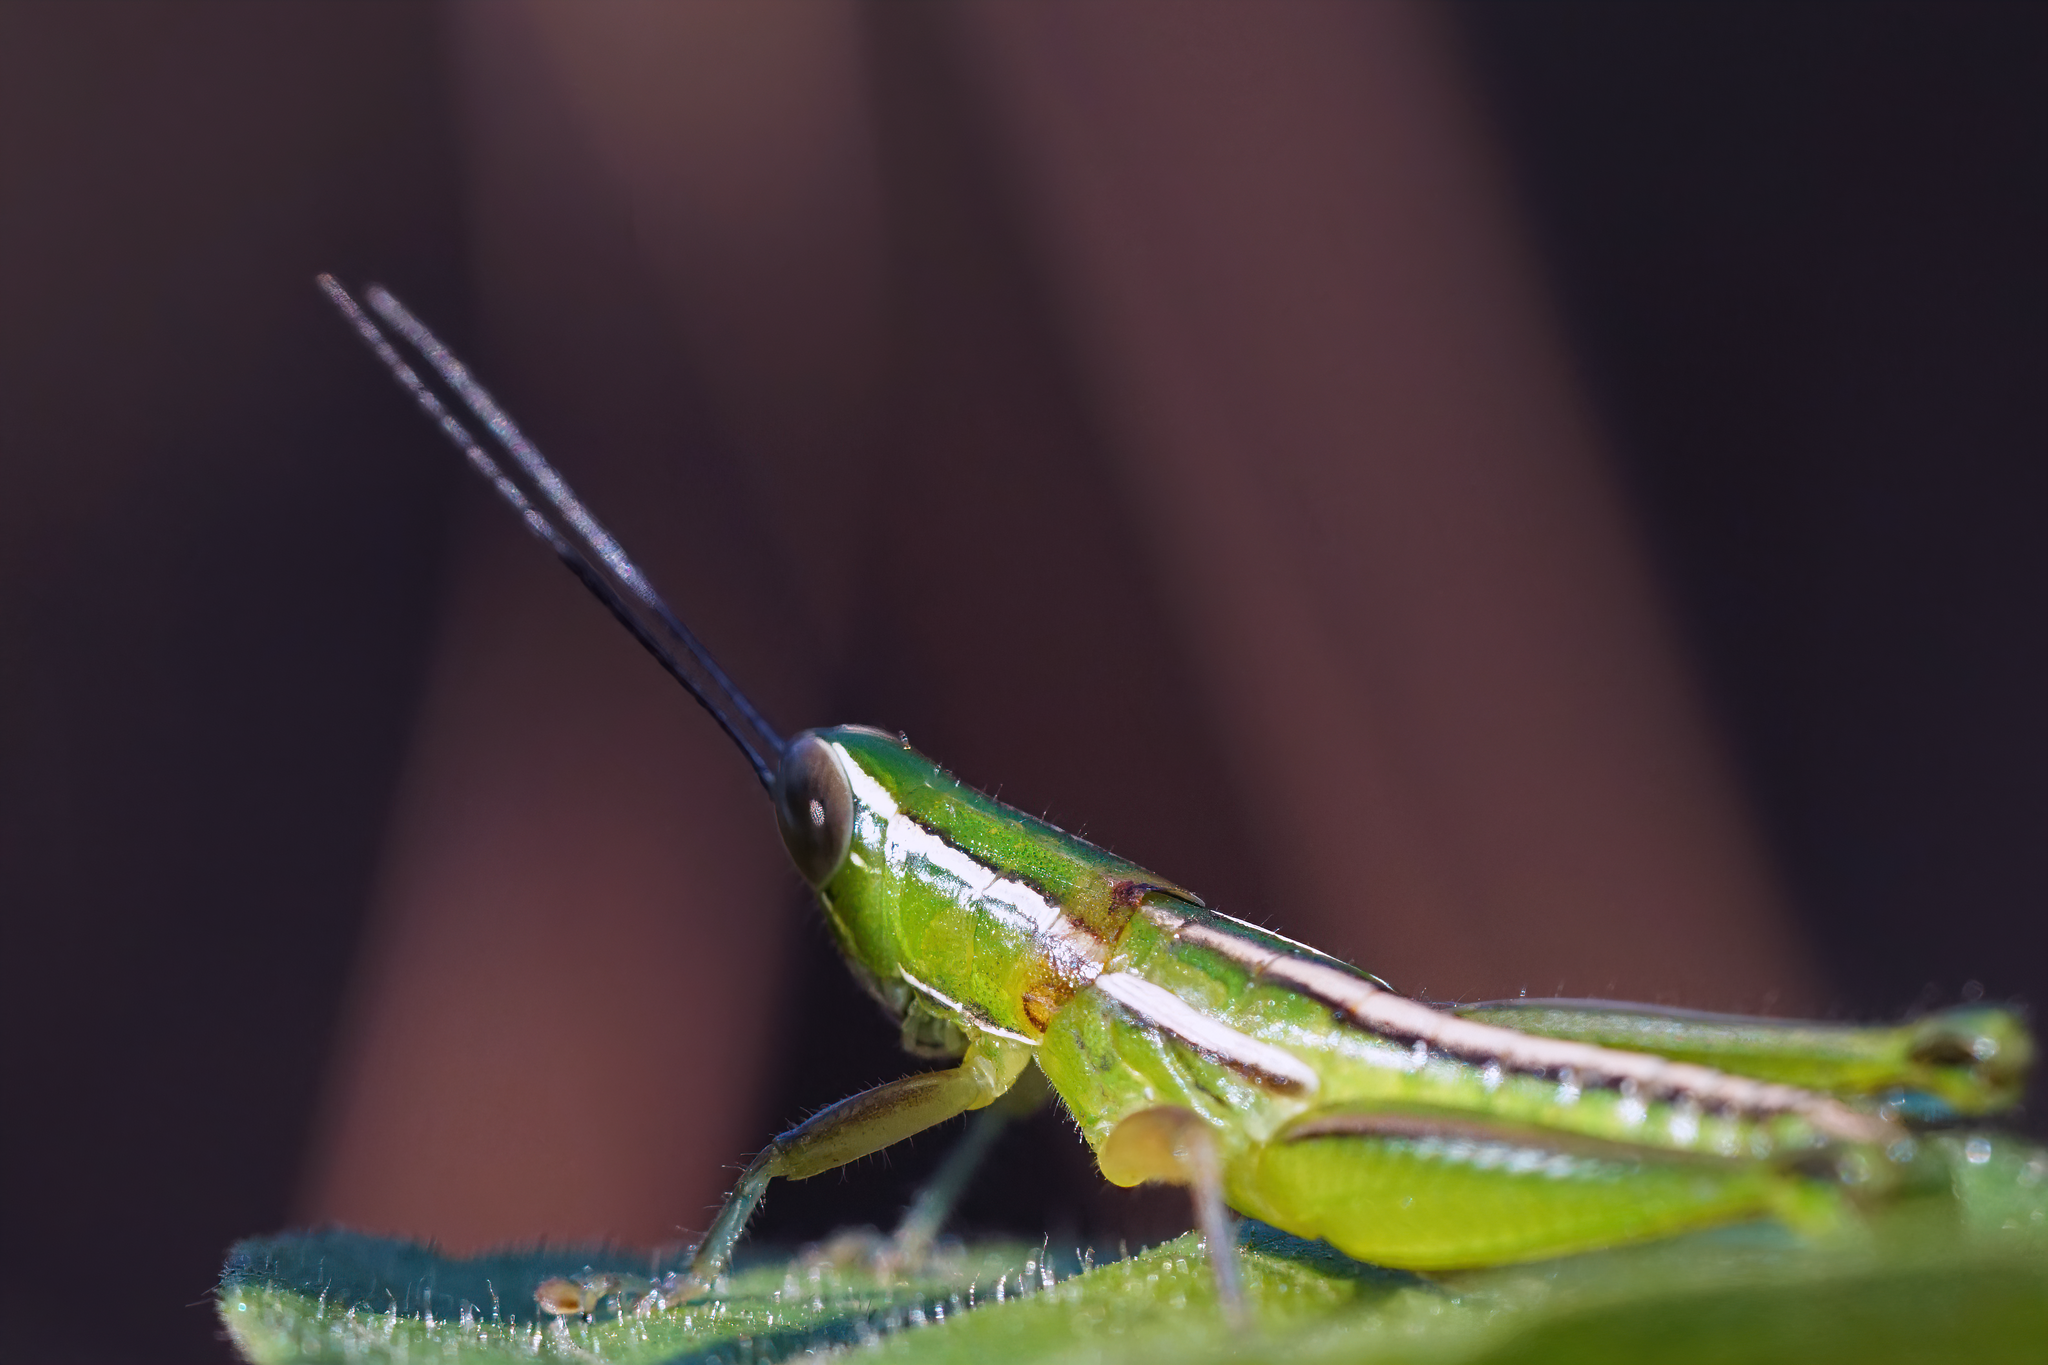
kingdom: Animalia
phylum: Arthropoda
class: Insecta
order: Orthoptera
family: Acrididae
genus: Aptenopedes
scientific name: Aptenopedes sphenarioides
